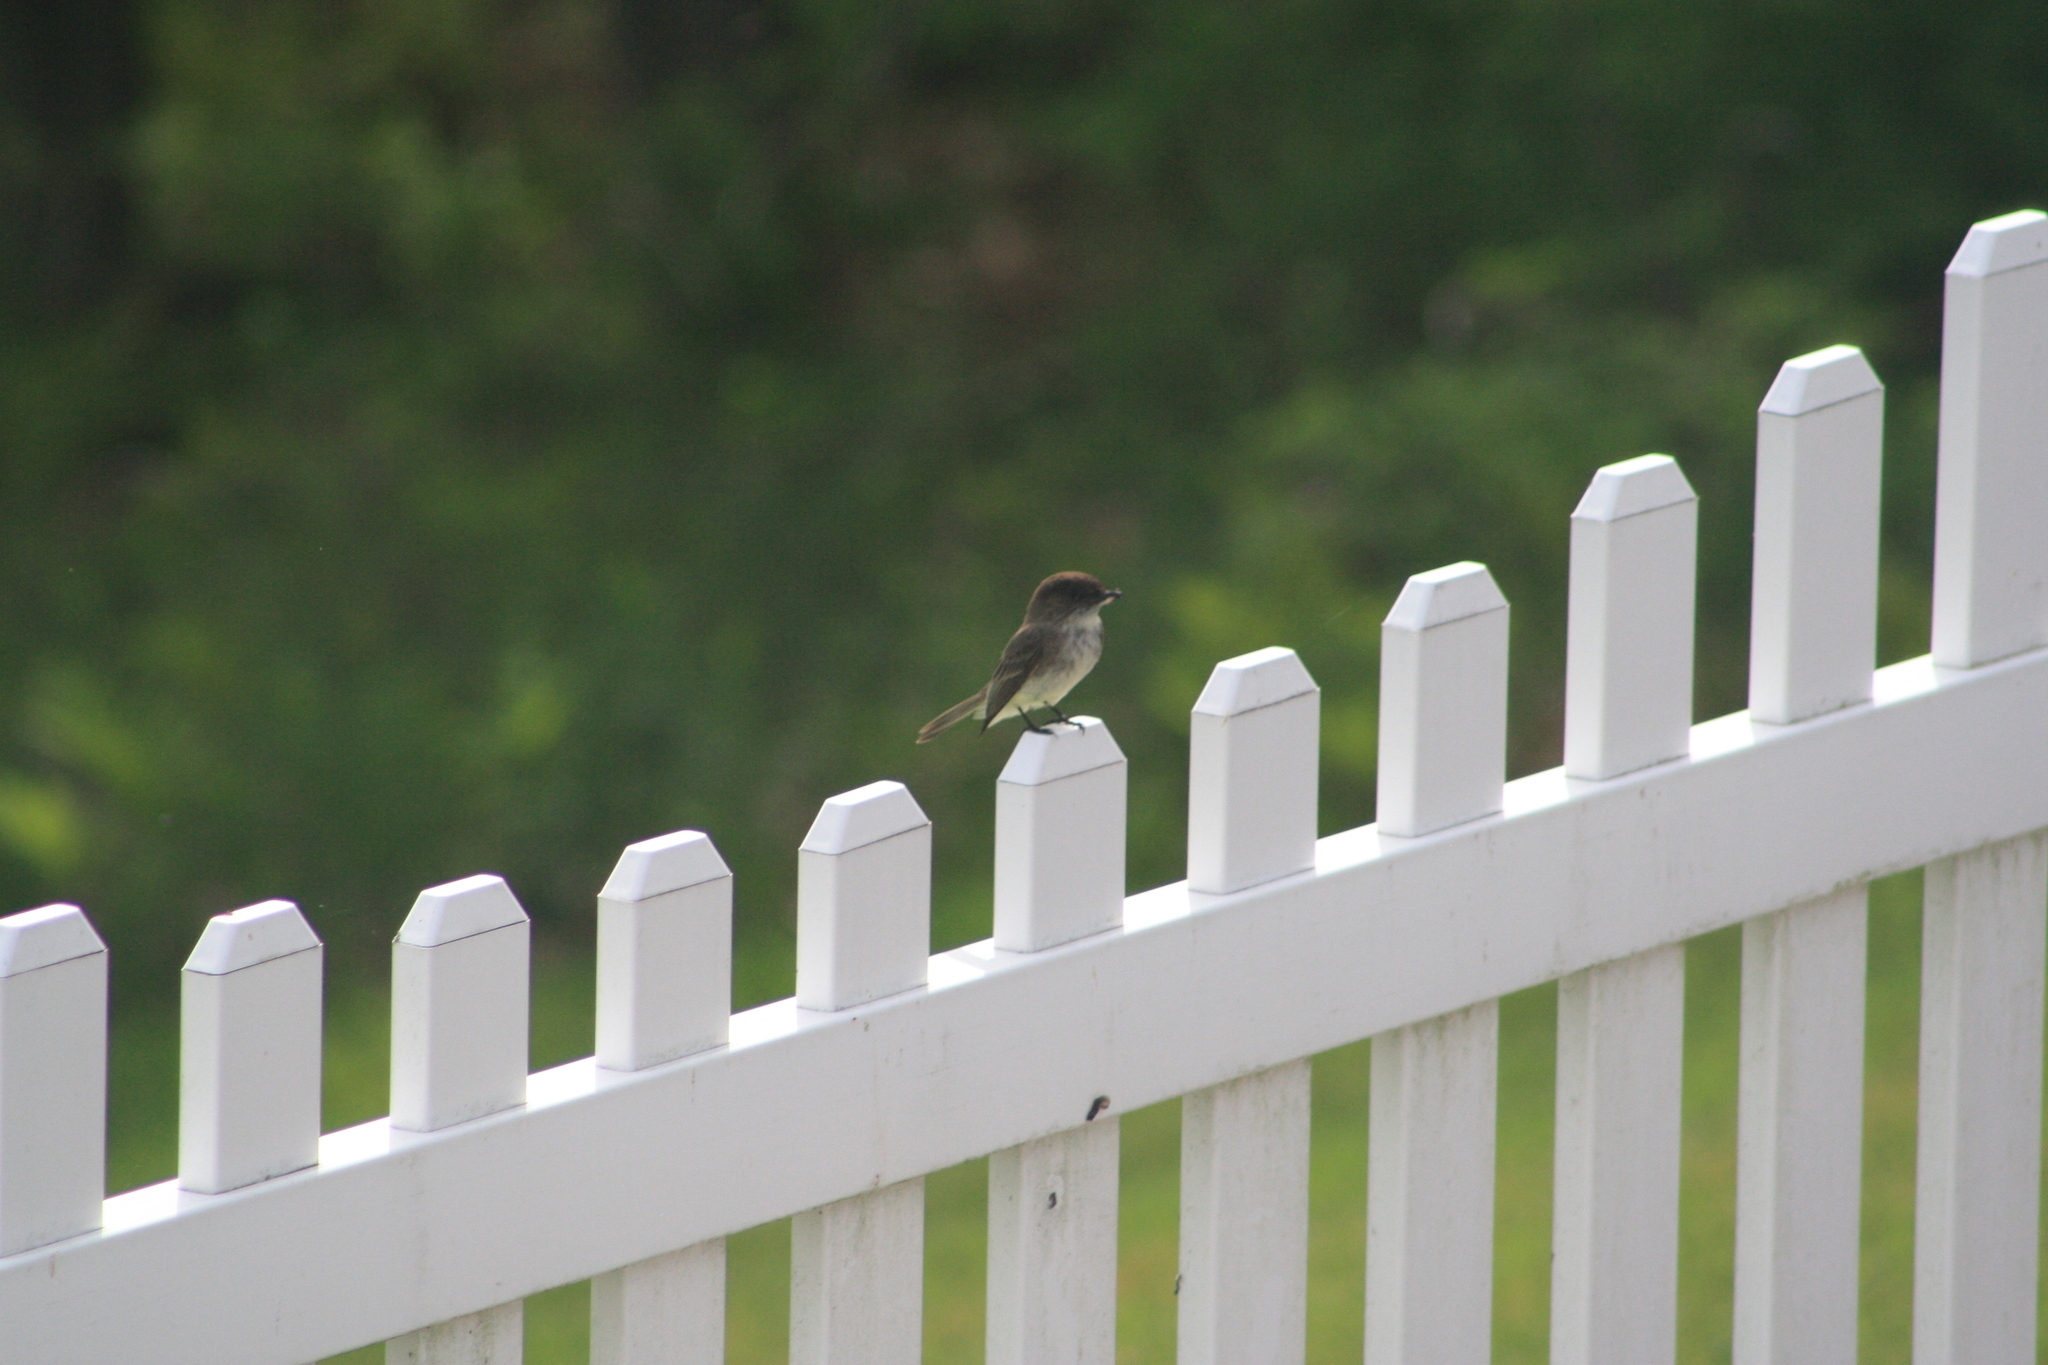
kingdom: Animalia
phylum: Chordata
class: Aves
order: Passeriformes
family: Tyrannidae
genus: Sayornis
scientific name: Sayornis phoebe
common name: Eastern phoebe
